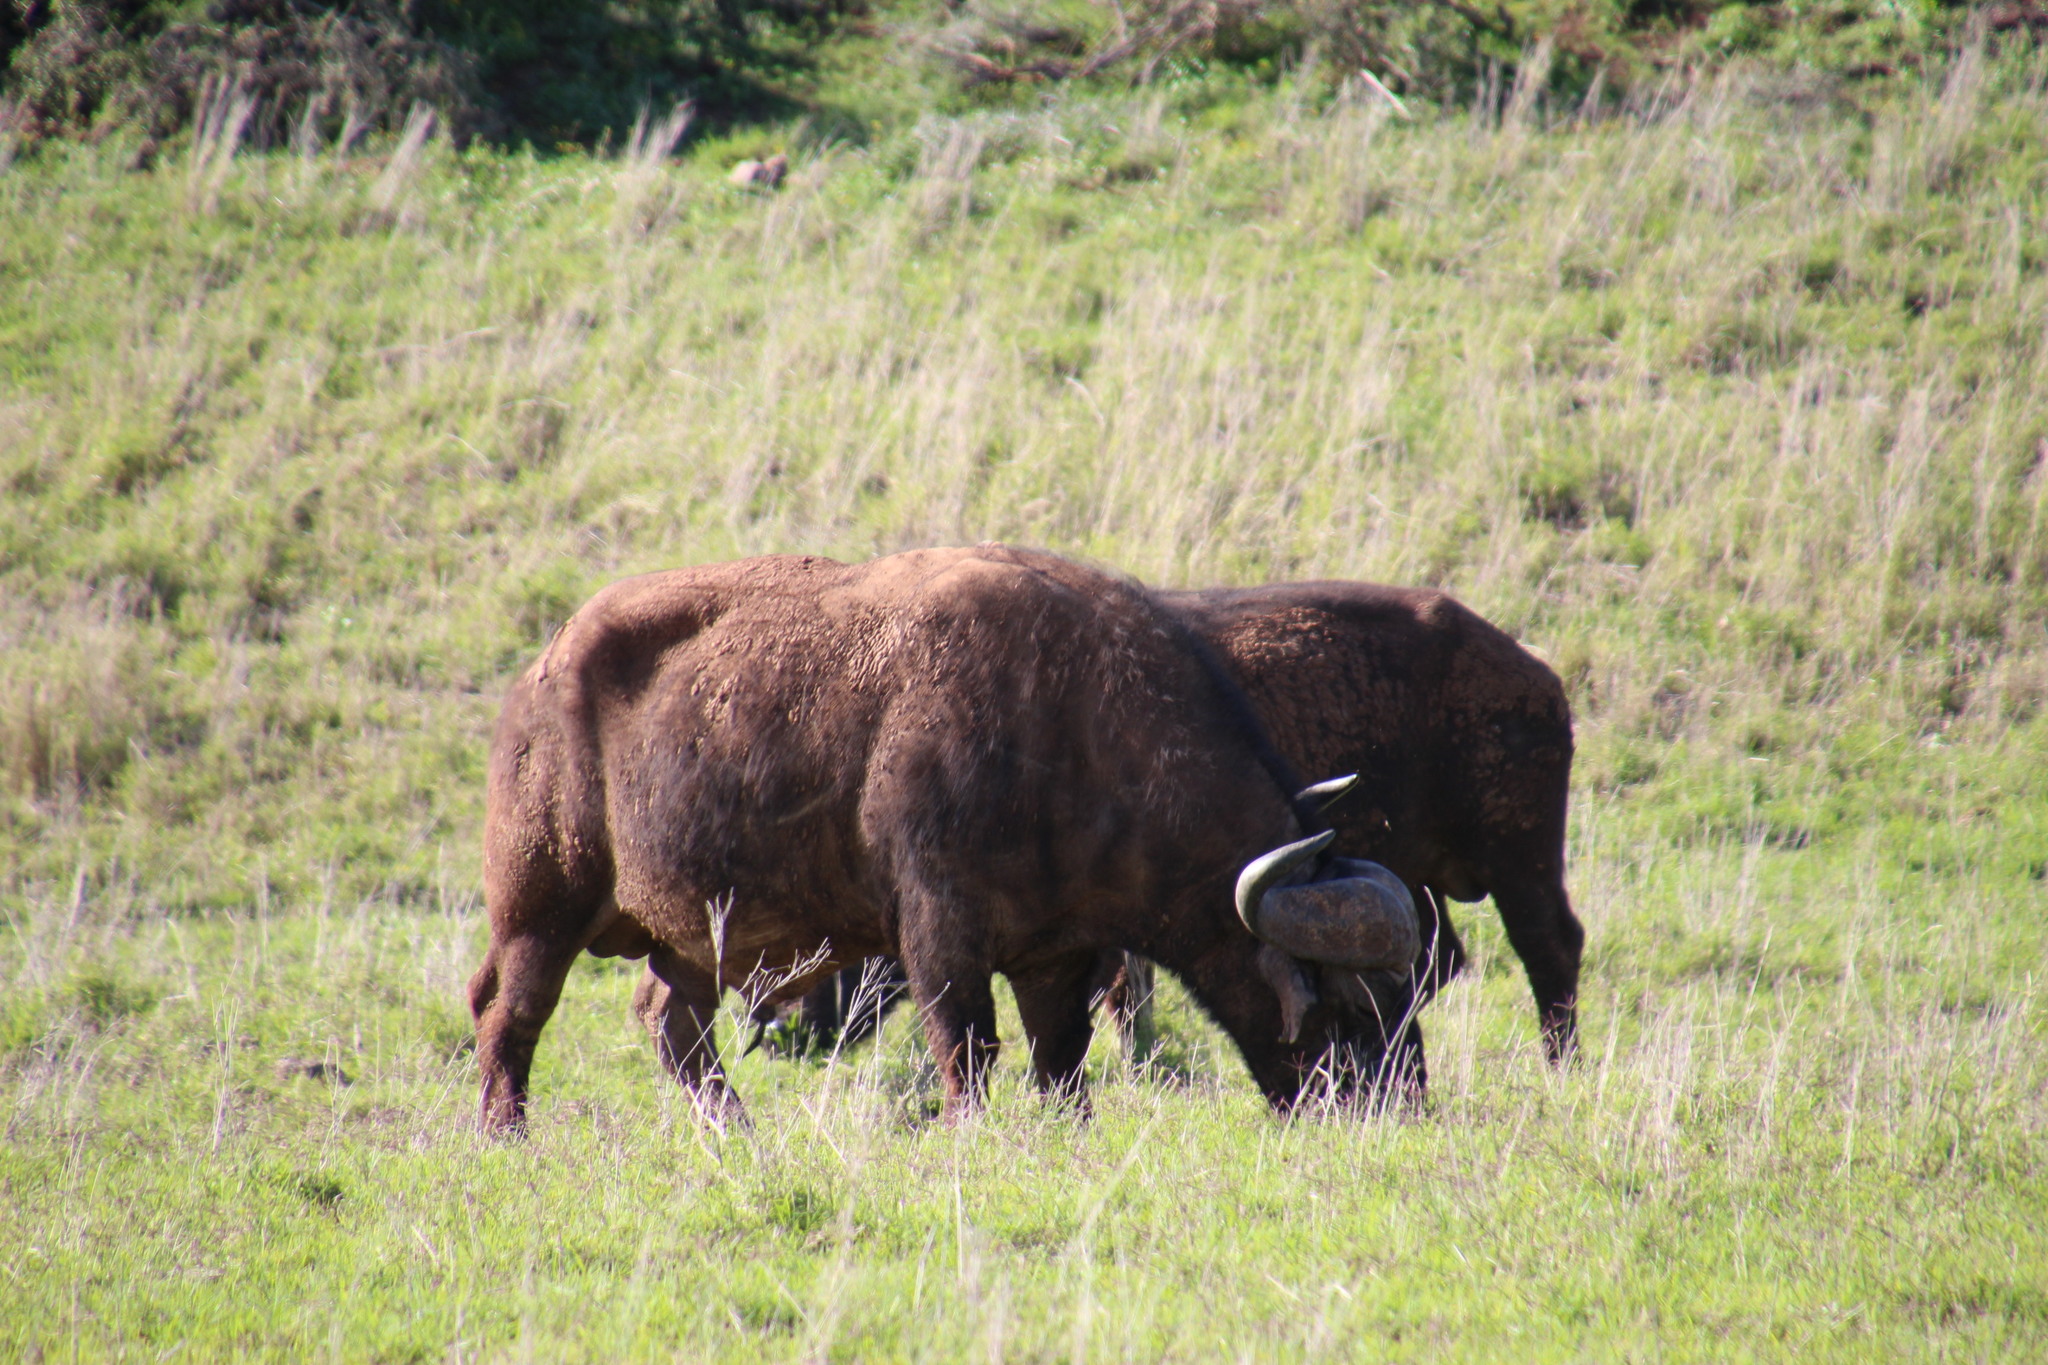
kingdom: Animalia
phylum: Chordata
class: Mammalia
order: Artiodactyla
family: Bovidae
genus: Syncerus
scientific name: Syncerus caffer
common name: African buffalo
